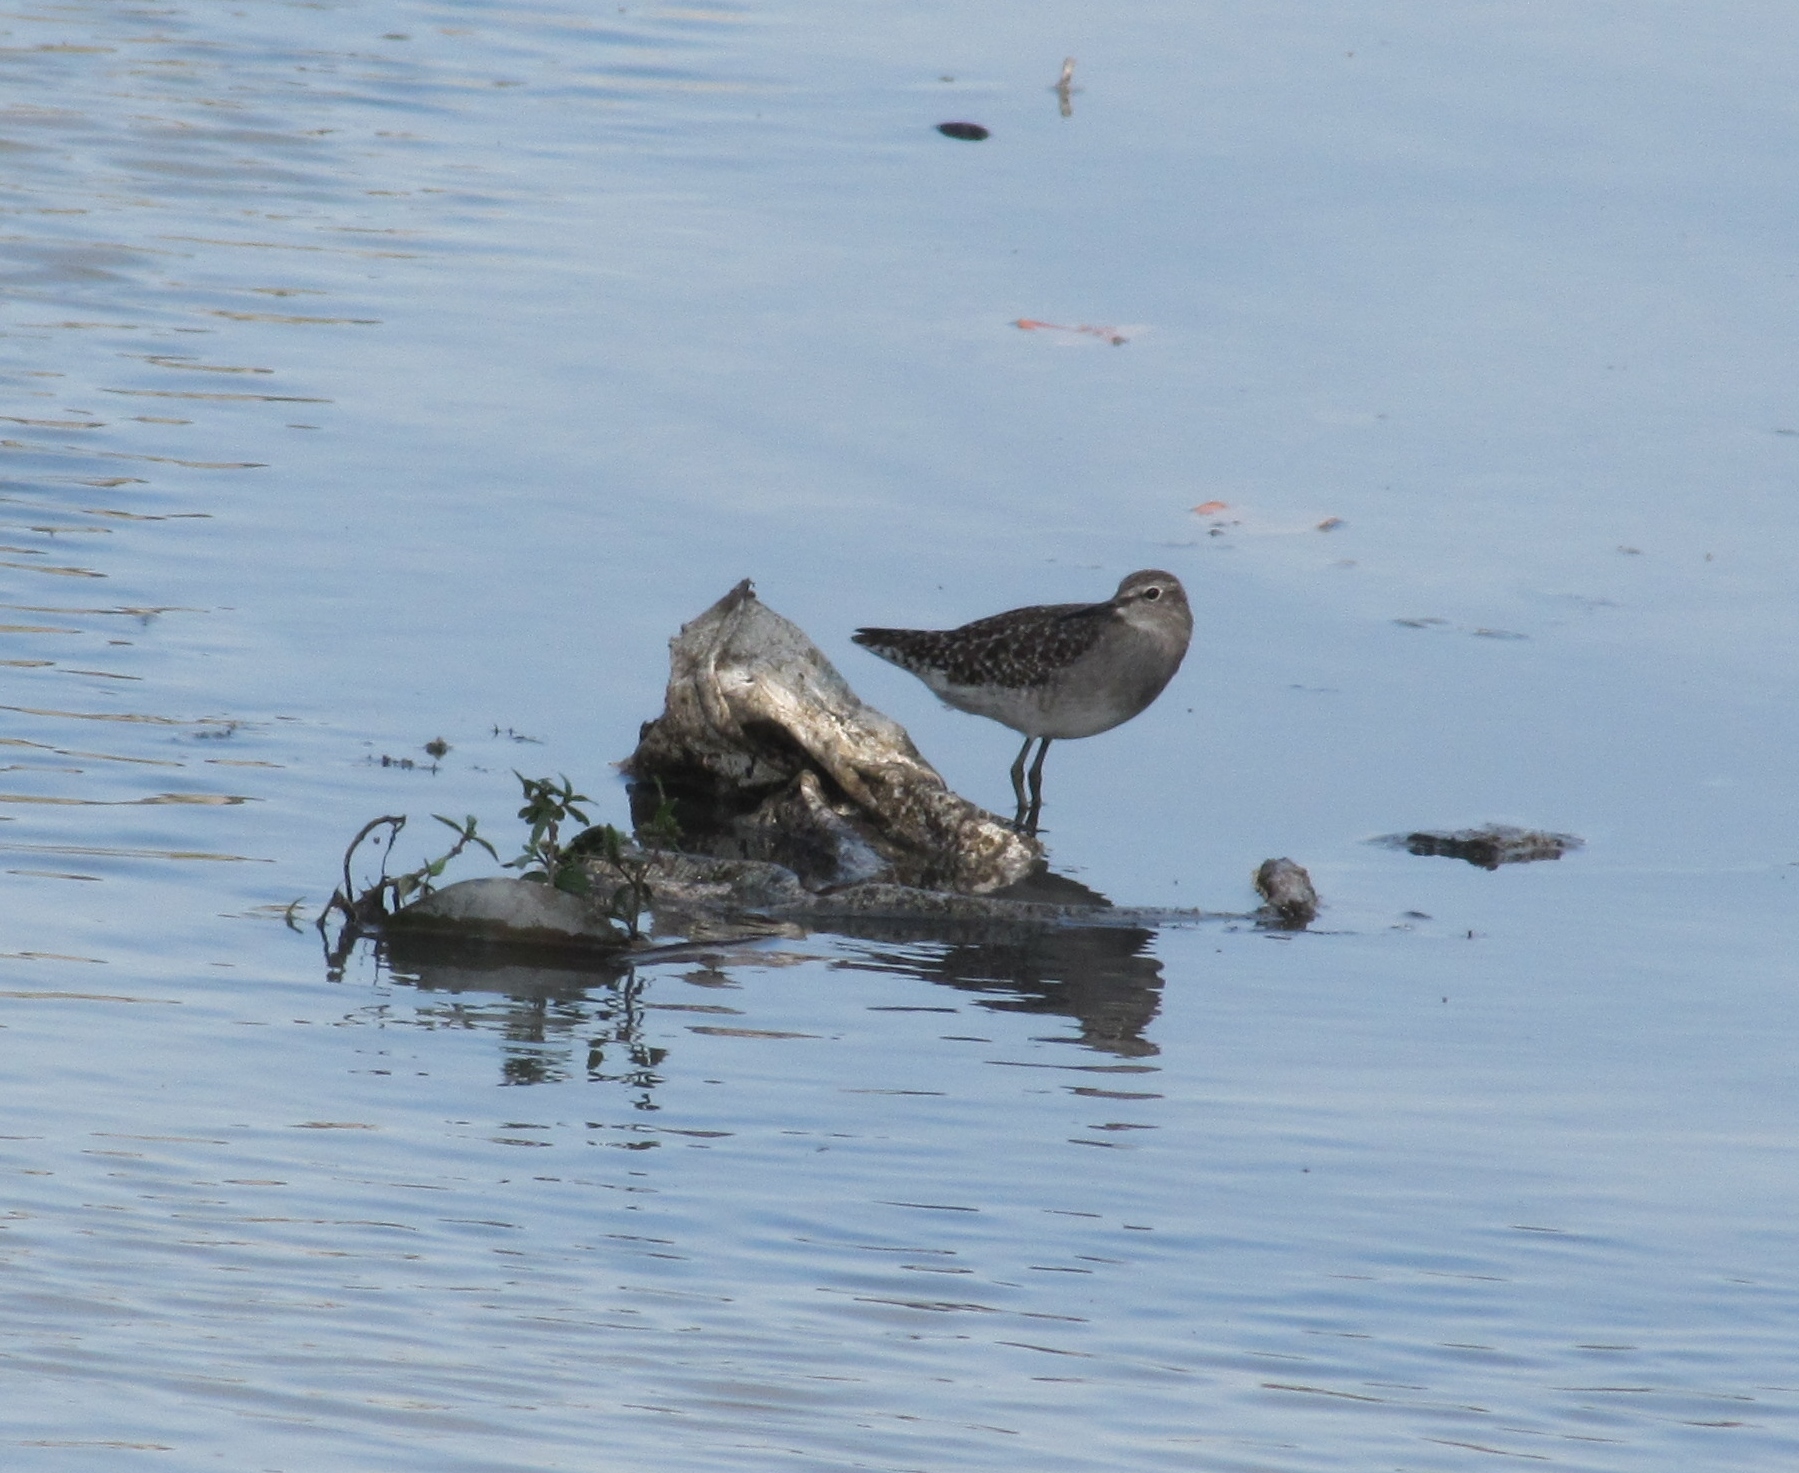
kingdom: Animalia
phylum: Chordata
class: Aves
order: Charadriiformes
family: Scolopacidae
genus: Tringa
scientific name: Tringa glareola
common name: Wood sandpiper
